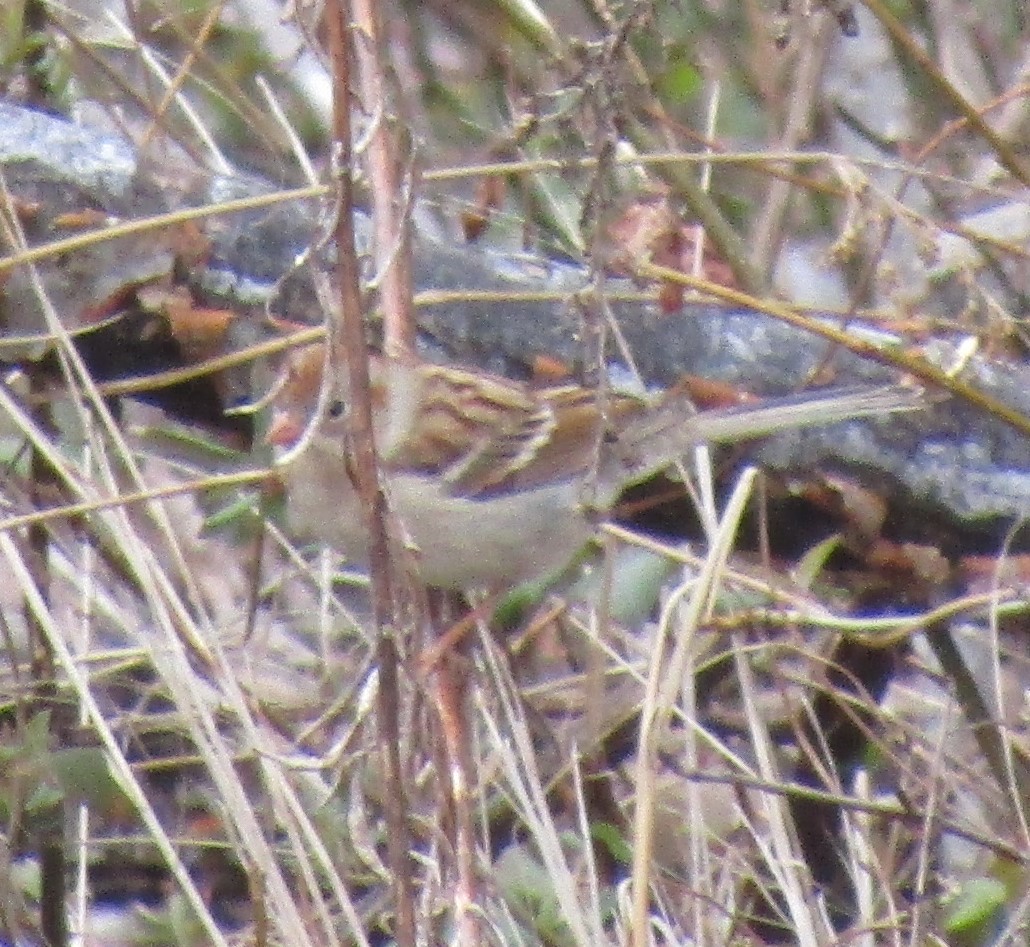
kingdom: Animalia
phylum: Chordata
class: Aves
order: Passeriformes
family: Passerellidae
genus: Spizella
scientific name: Spizella pusilla
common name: Field sparrow
